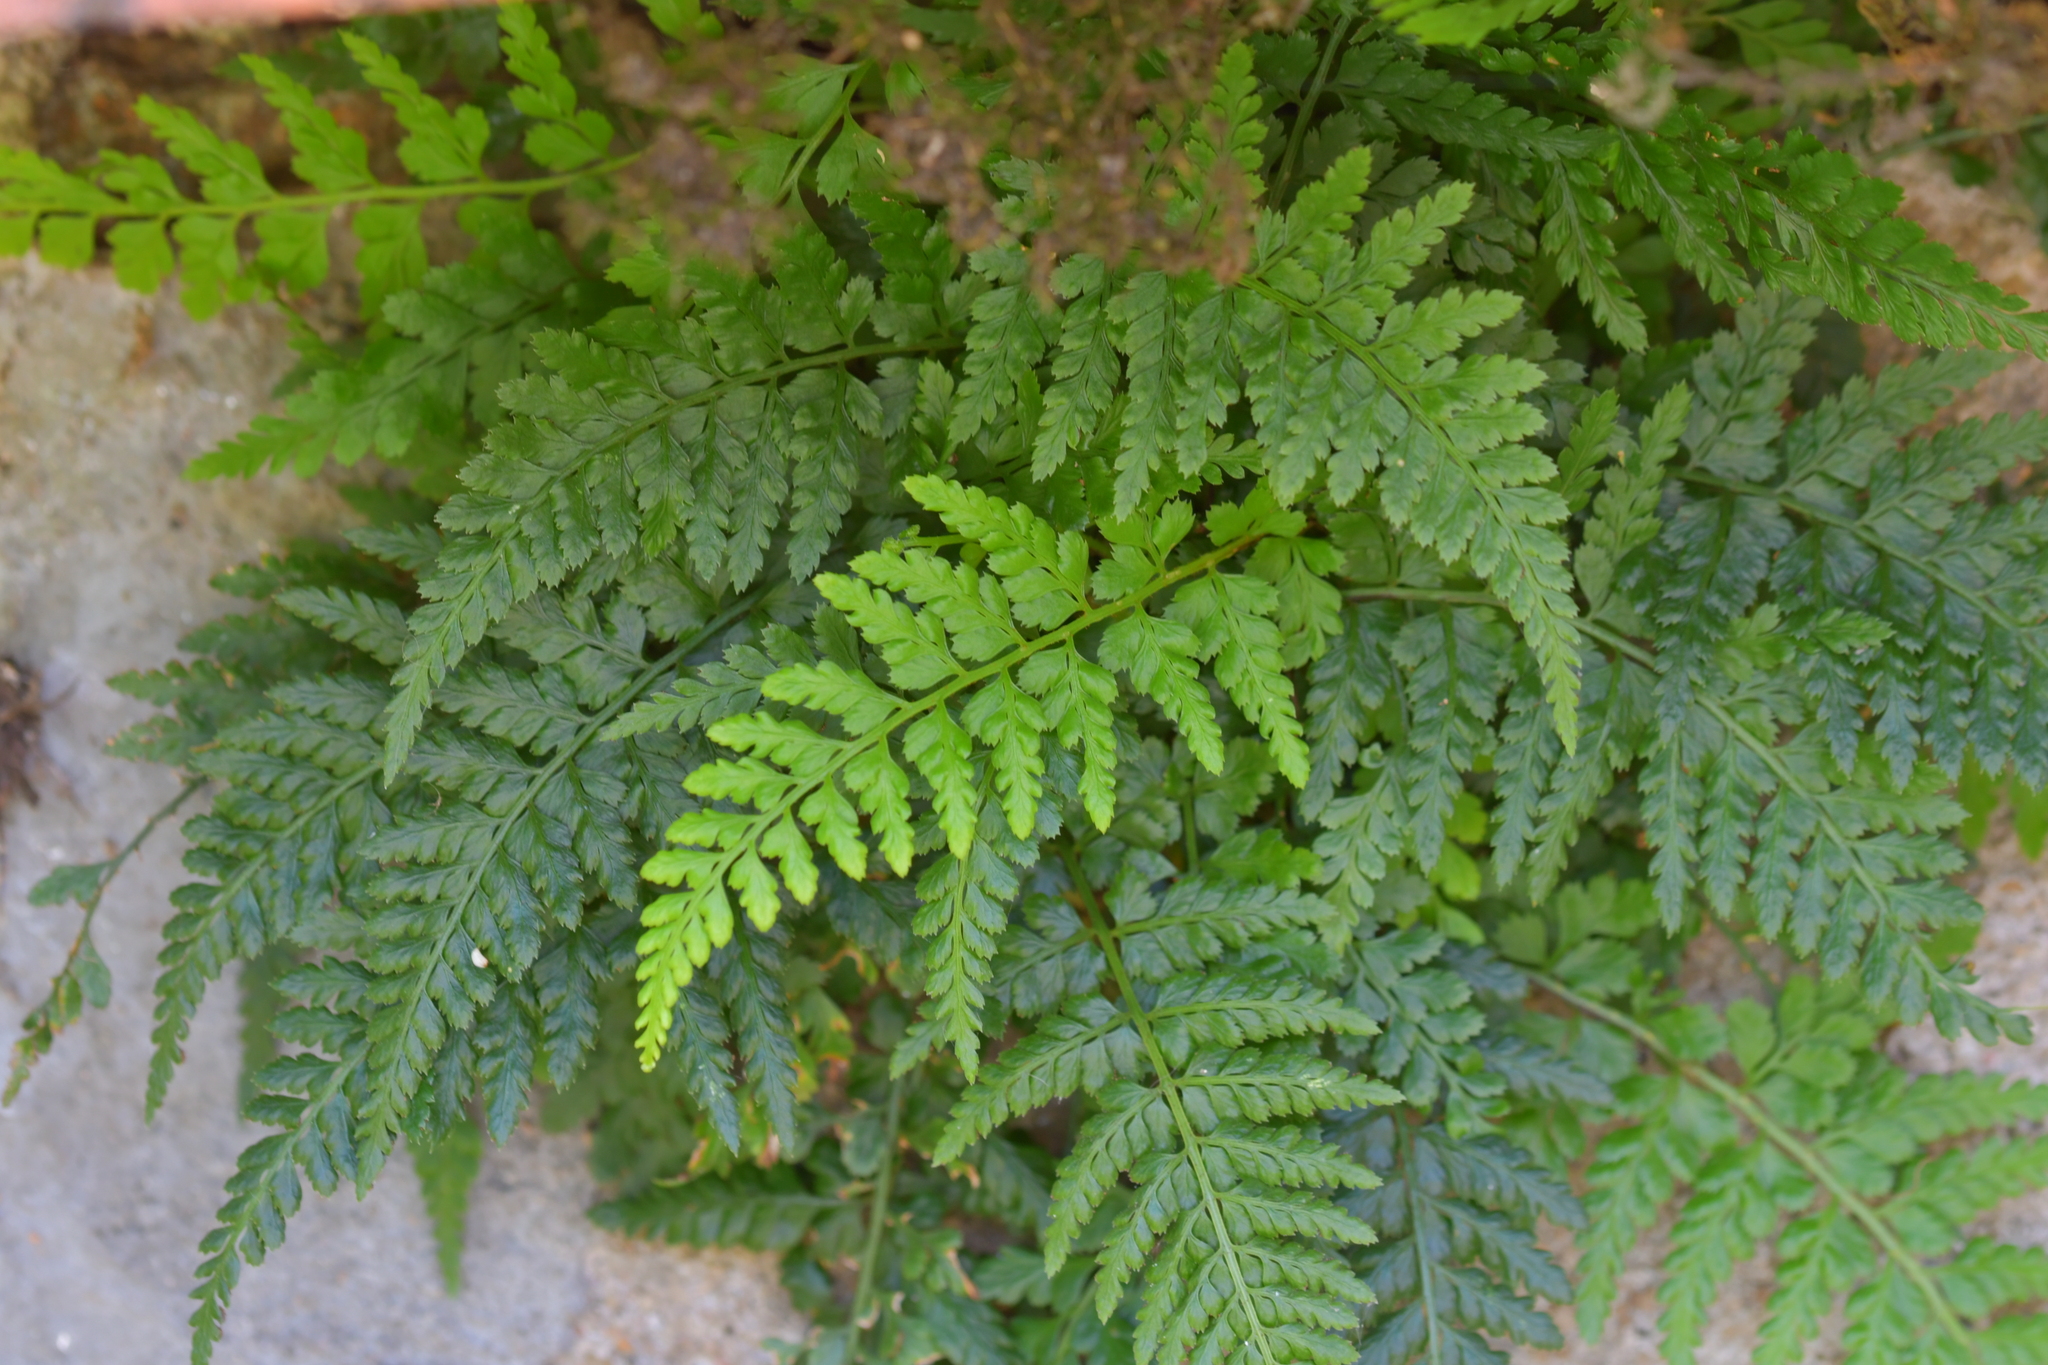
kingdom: Plantae
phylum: Tracheophyta
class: Polypodiopsida
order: Polypodiales
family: Aspleniaceae
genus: Asplenium
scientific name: Asplenium obovatum
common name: Lanceolate spleenwort
